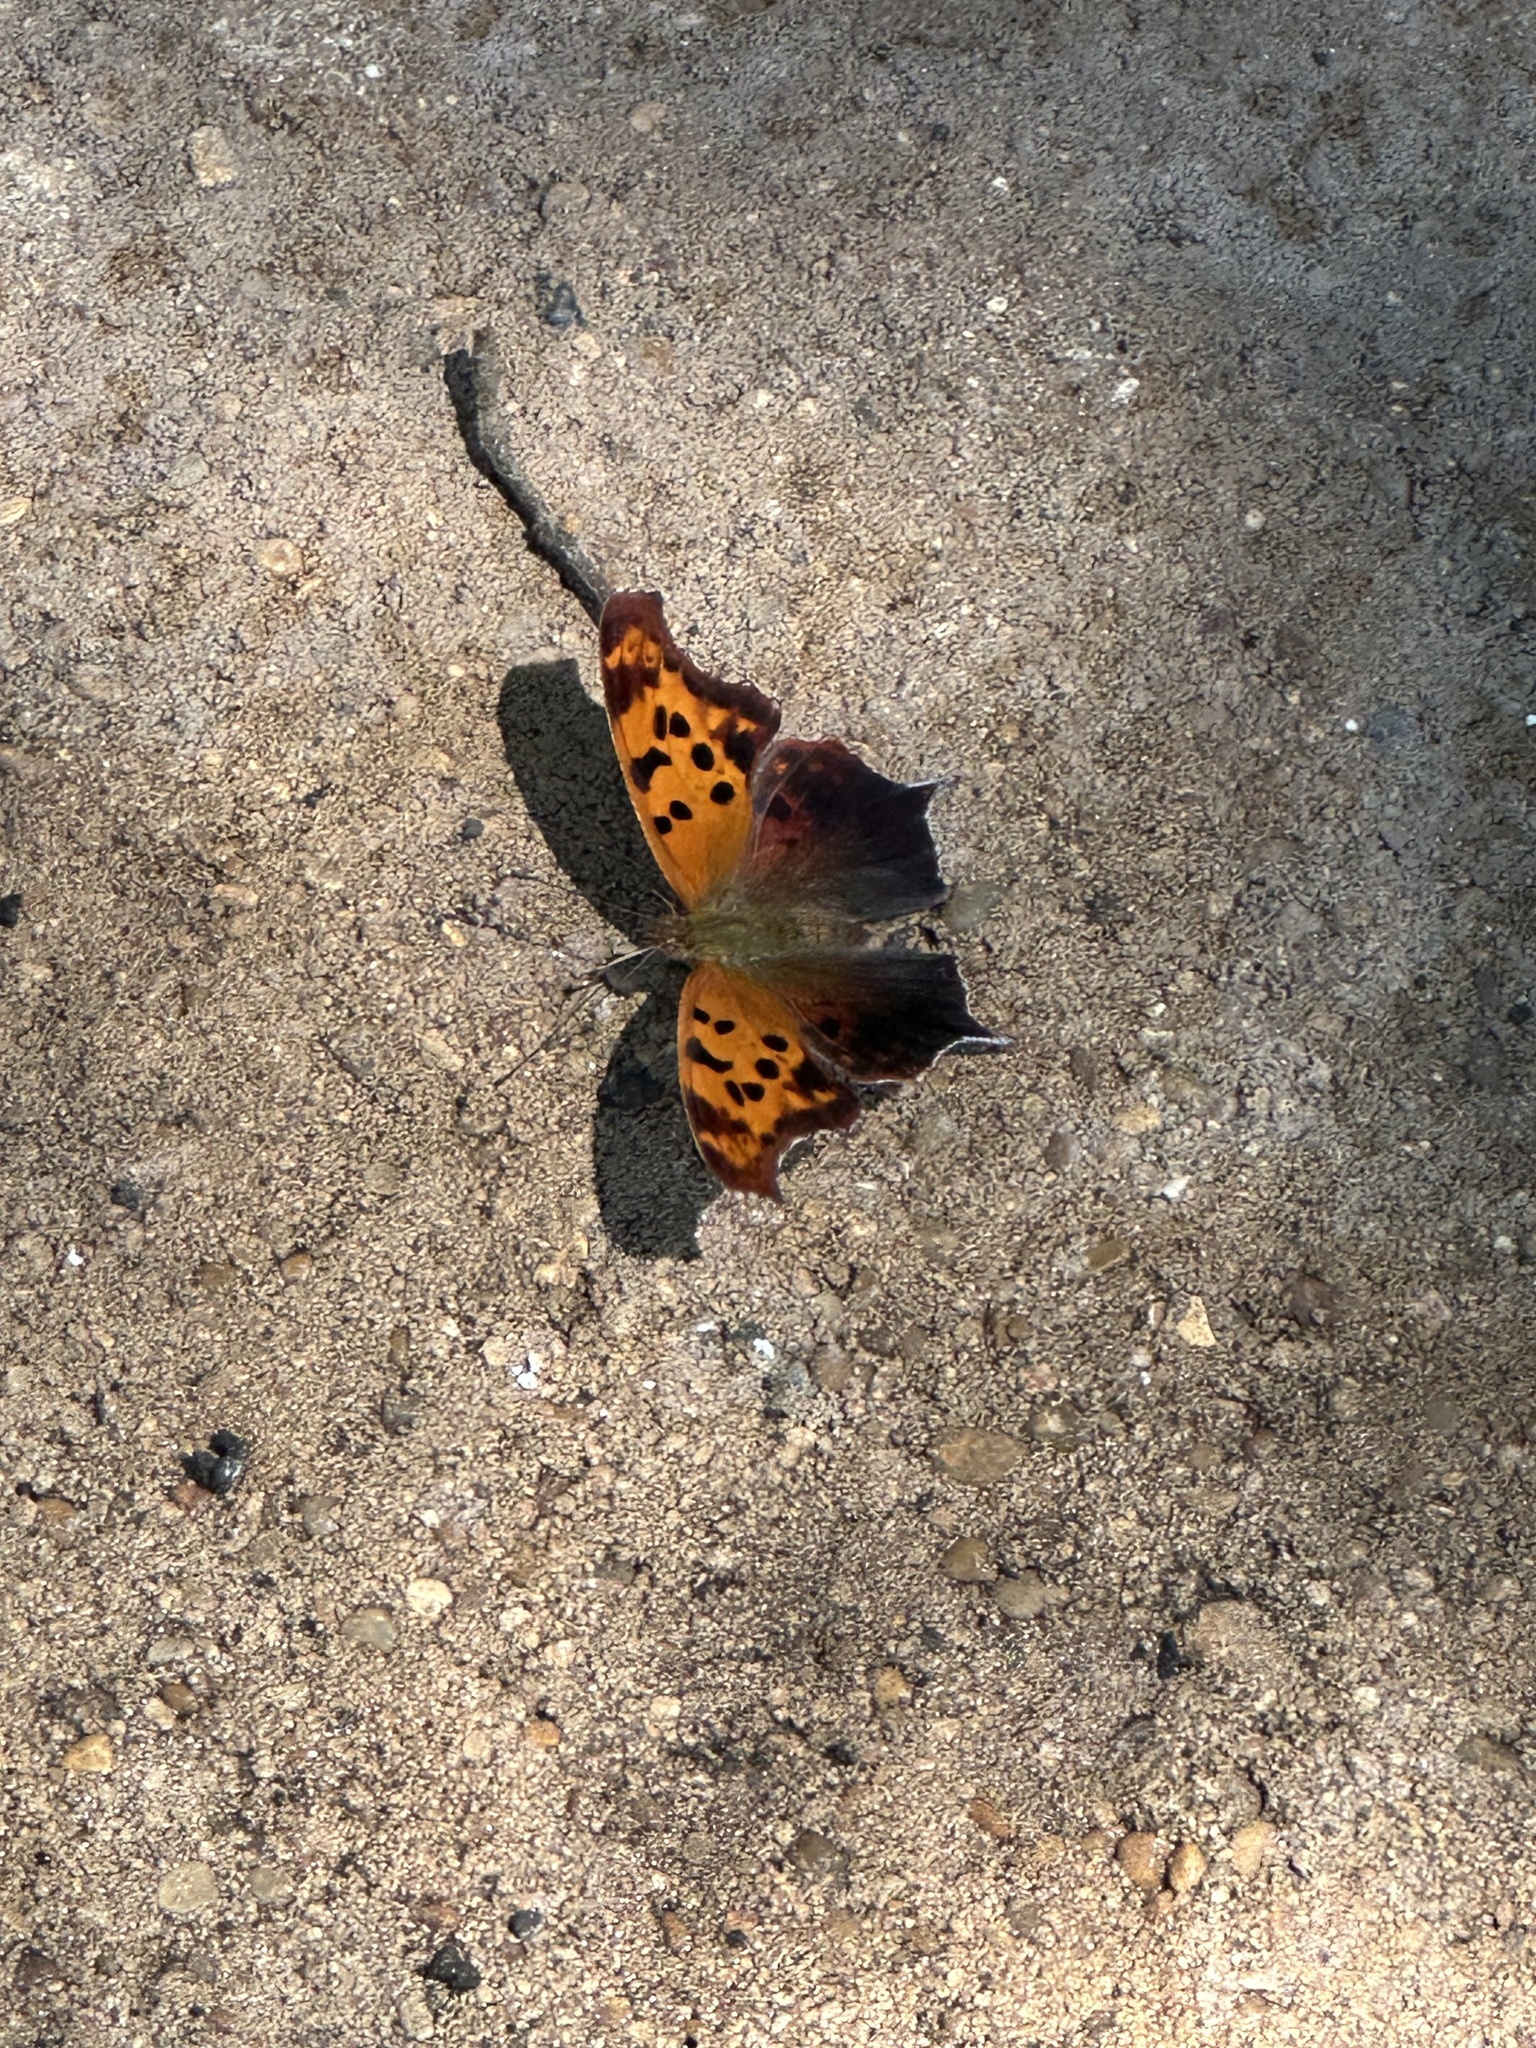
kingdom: Animalia
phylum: Arthropoda
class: Insecta
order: Lepidoptera
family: Nymphalidae
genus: Polygonia
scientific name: Polygonia interrogationis
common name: Question mark
